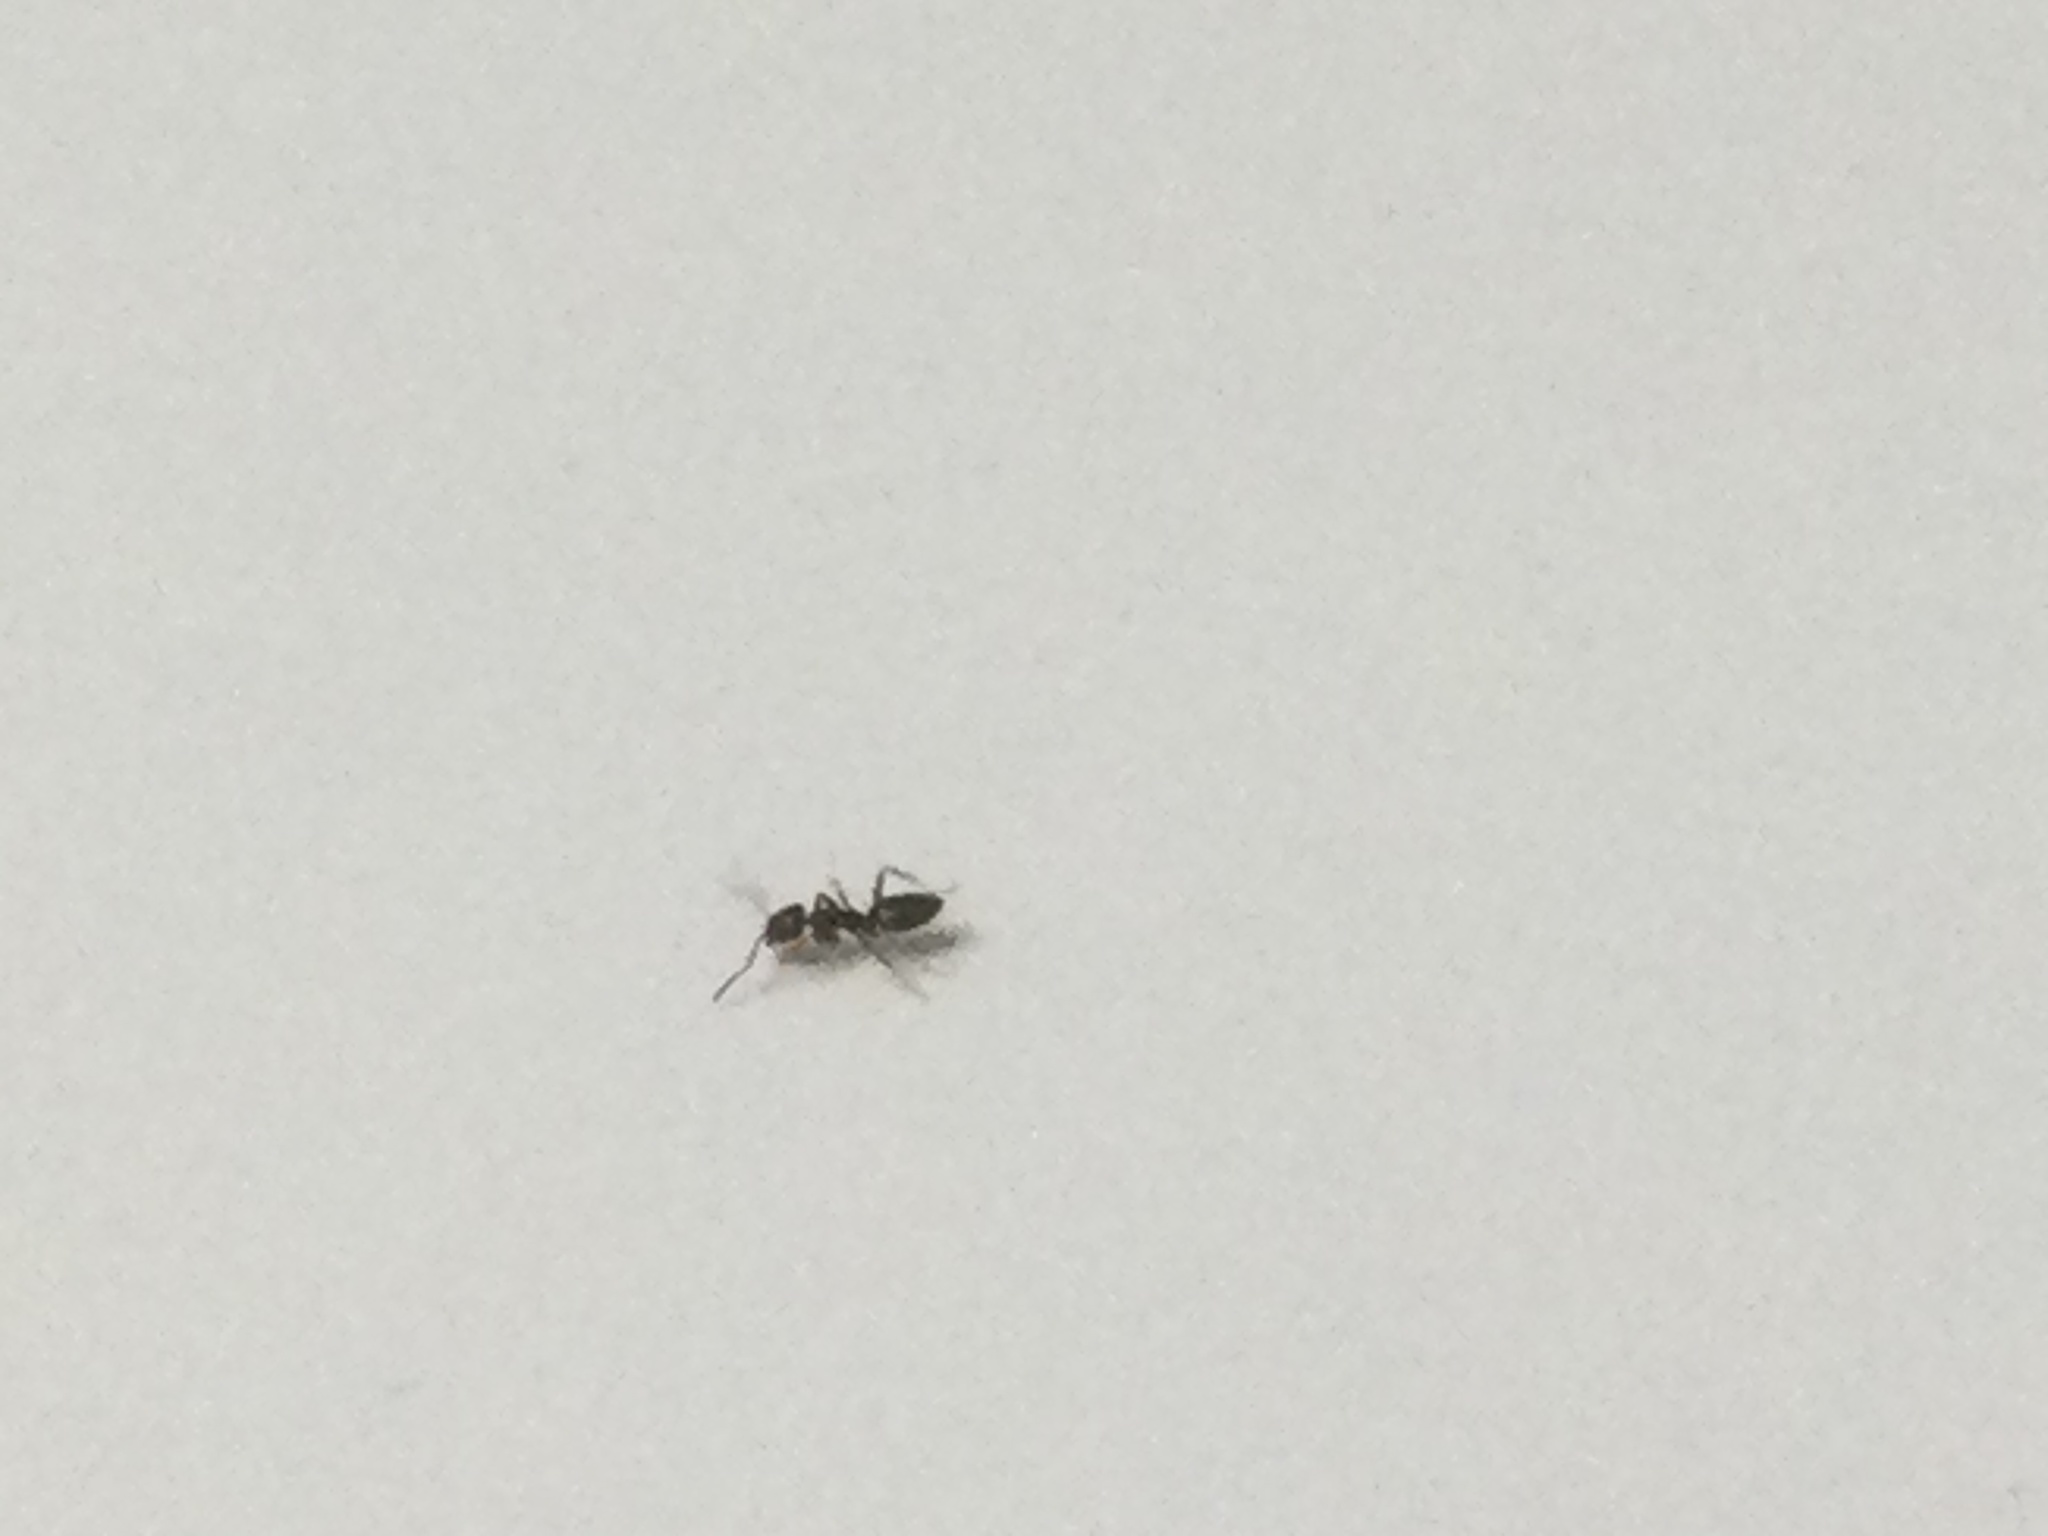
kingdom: Animalia
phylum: Arthropoda
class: Insecta
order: Hymenoptera
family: Formicidae
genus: Tapinoma
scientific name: Tapinoma sessile
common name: Odorous house ant
